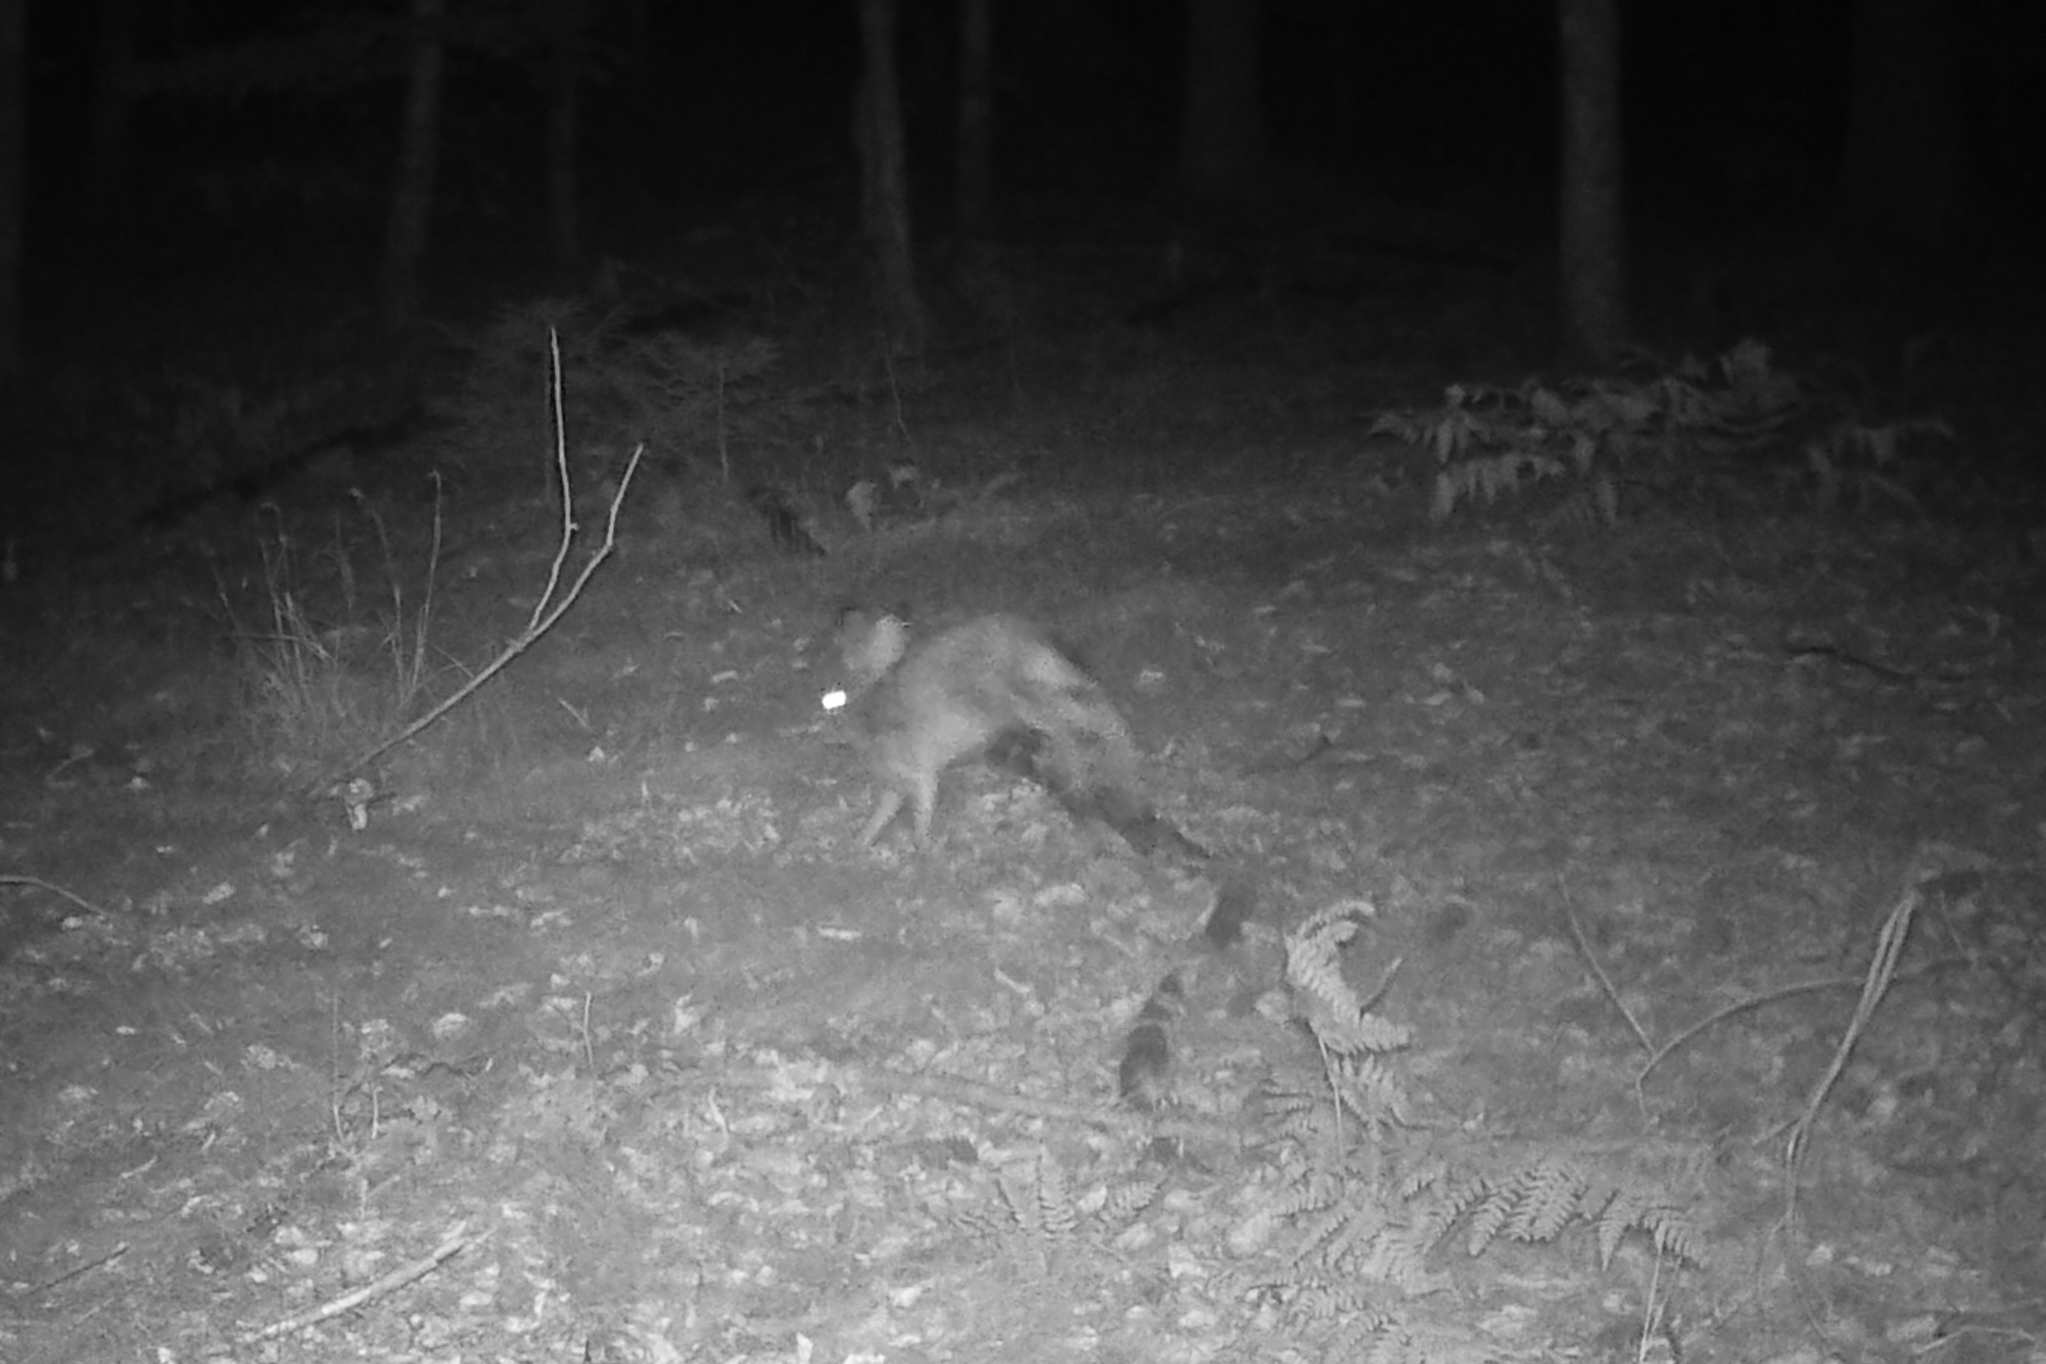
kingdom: Animalia
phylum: Chordata
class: Mammalia
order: Lagomorpha
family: Leporidae
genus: Lepus
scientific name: Lepus europaeus
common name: European hare
